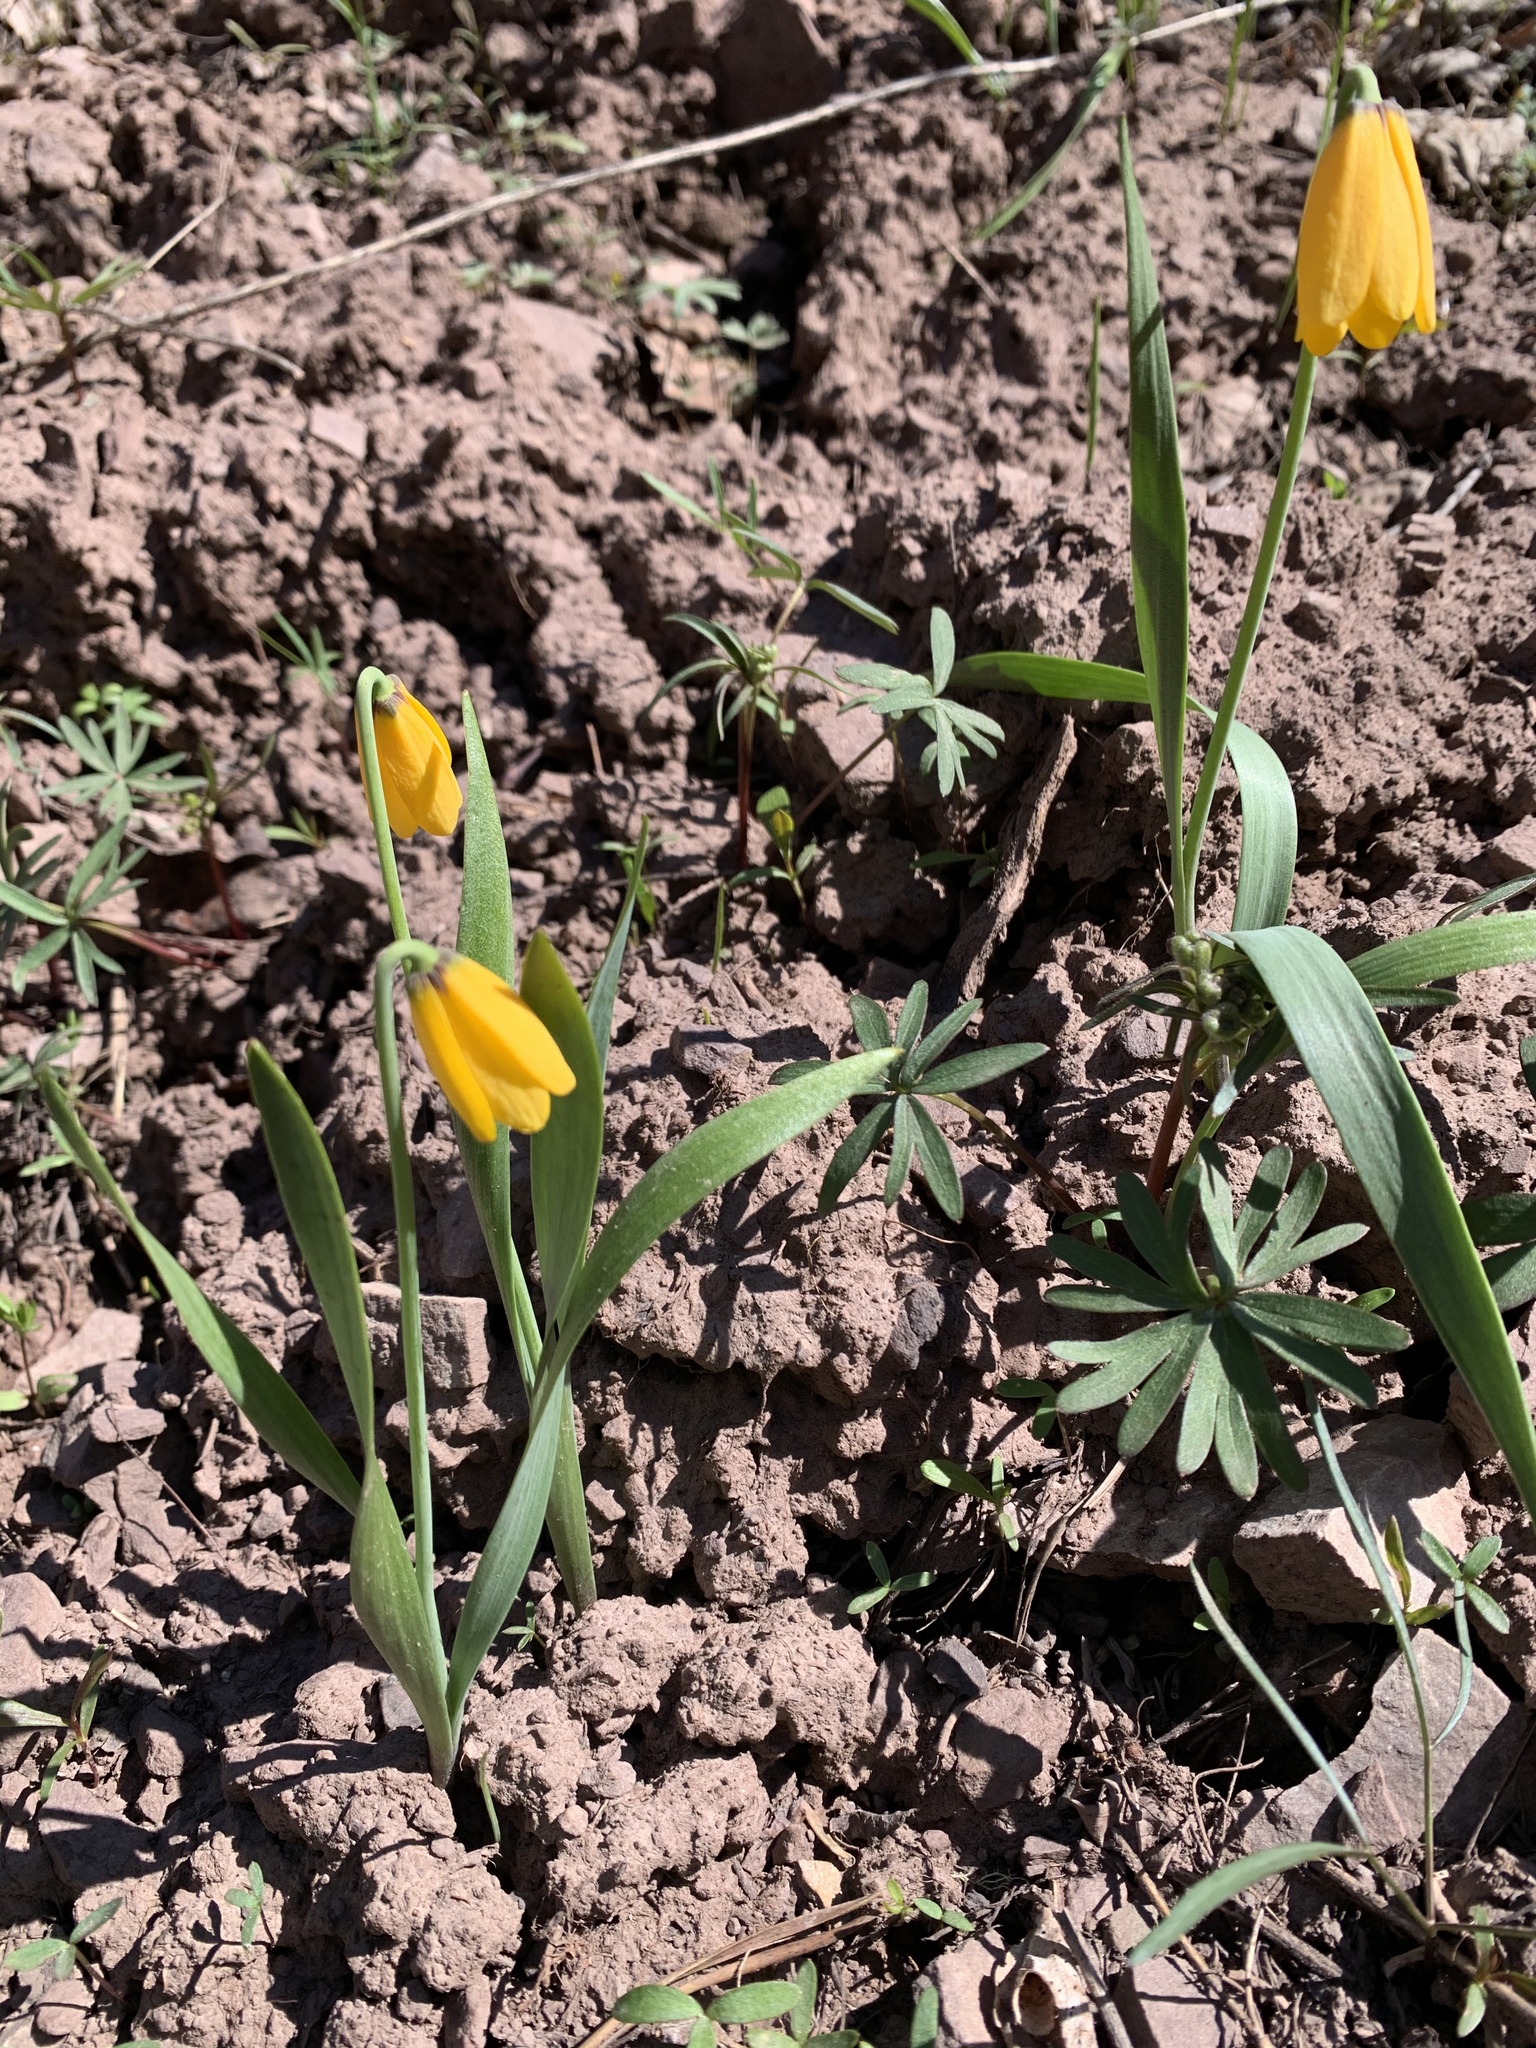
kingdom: Plantae
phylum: Tracheophyta
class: Liliopsida
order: Liliales
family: Liliaceae
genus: Fritillaria
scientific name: Fritillaria pudica
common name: Yellow fritillary
